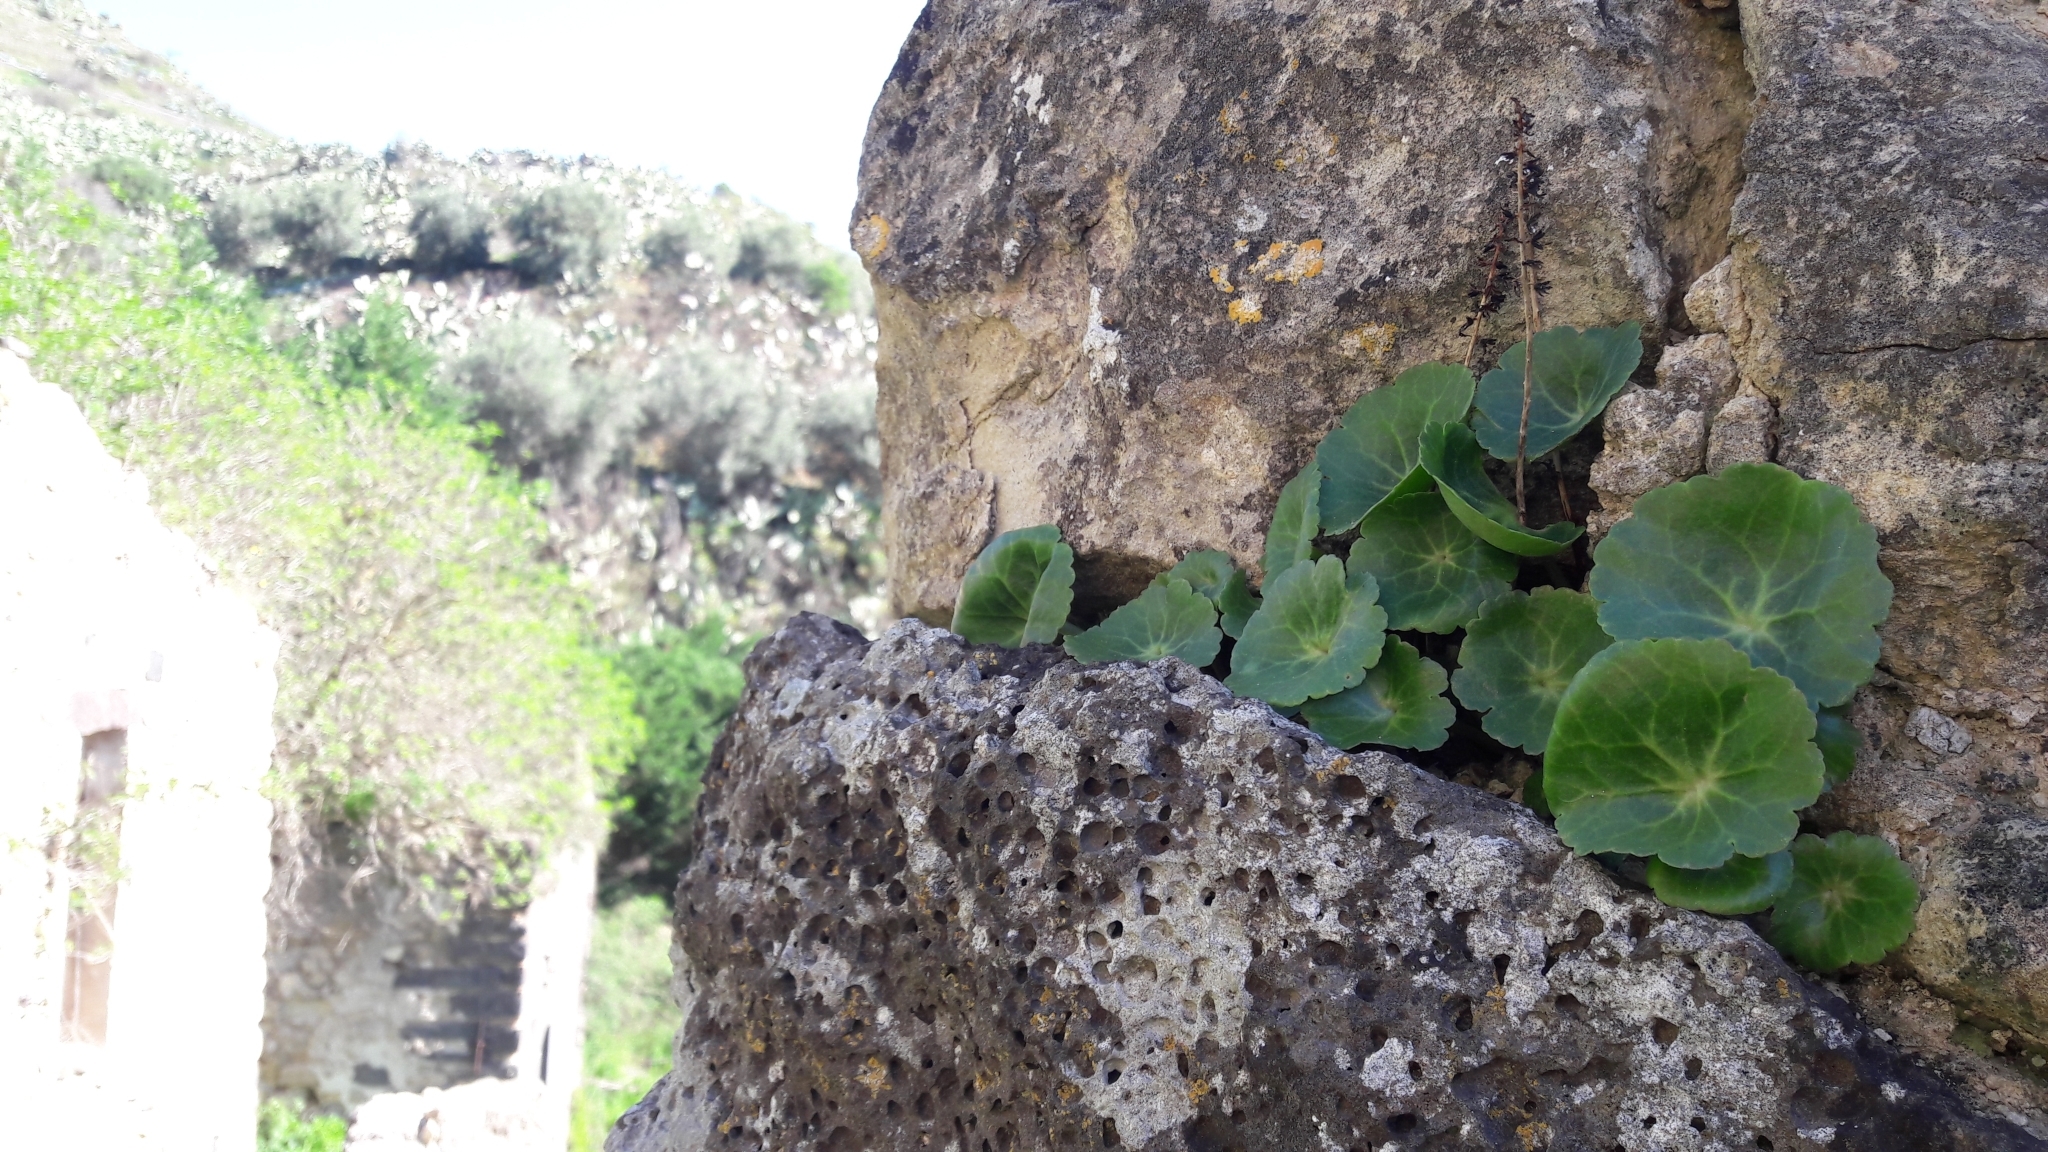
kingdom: Plantae
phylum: Tracheophyta
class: Magnoliopsida
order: Saxifragales
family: Crassulaceae
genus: Umbilicus
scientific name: Umbilicus rupestris
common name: Navelwort
